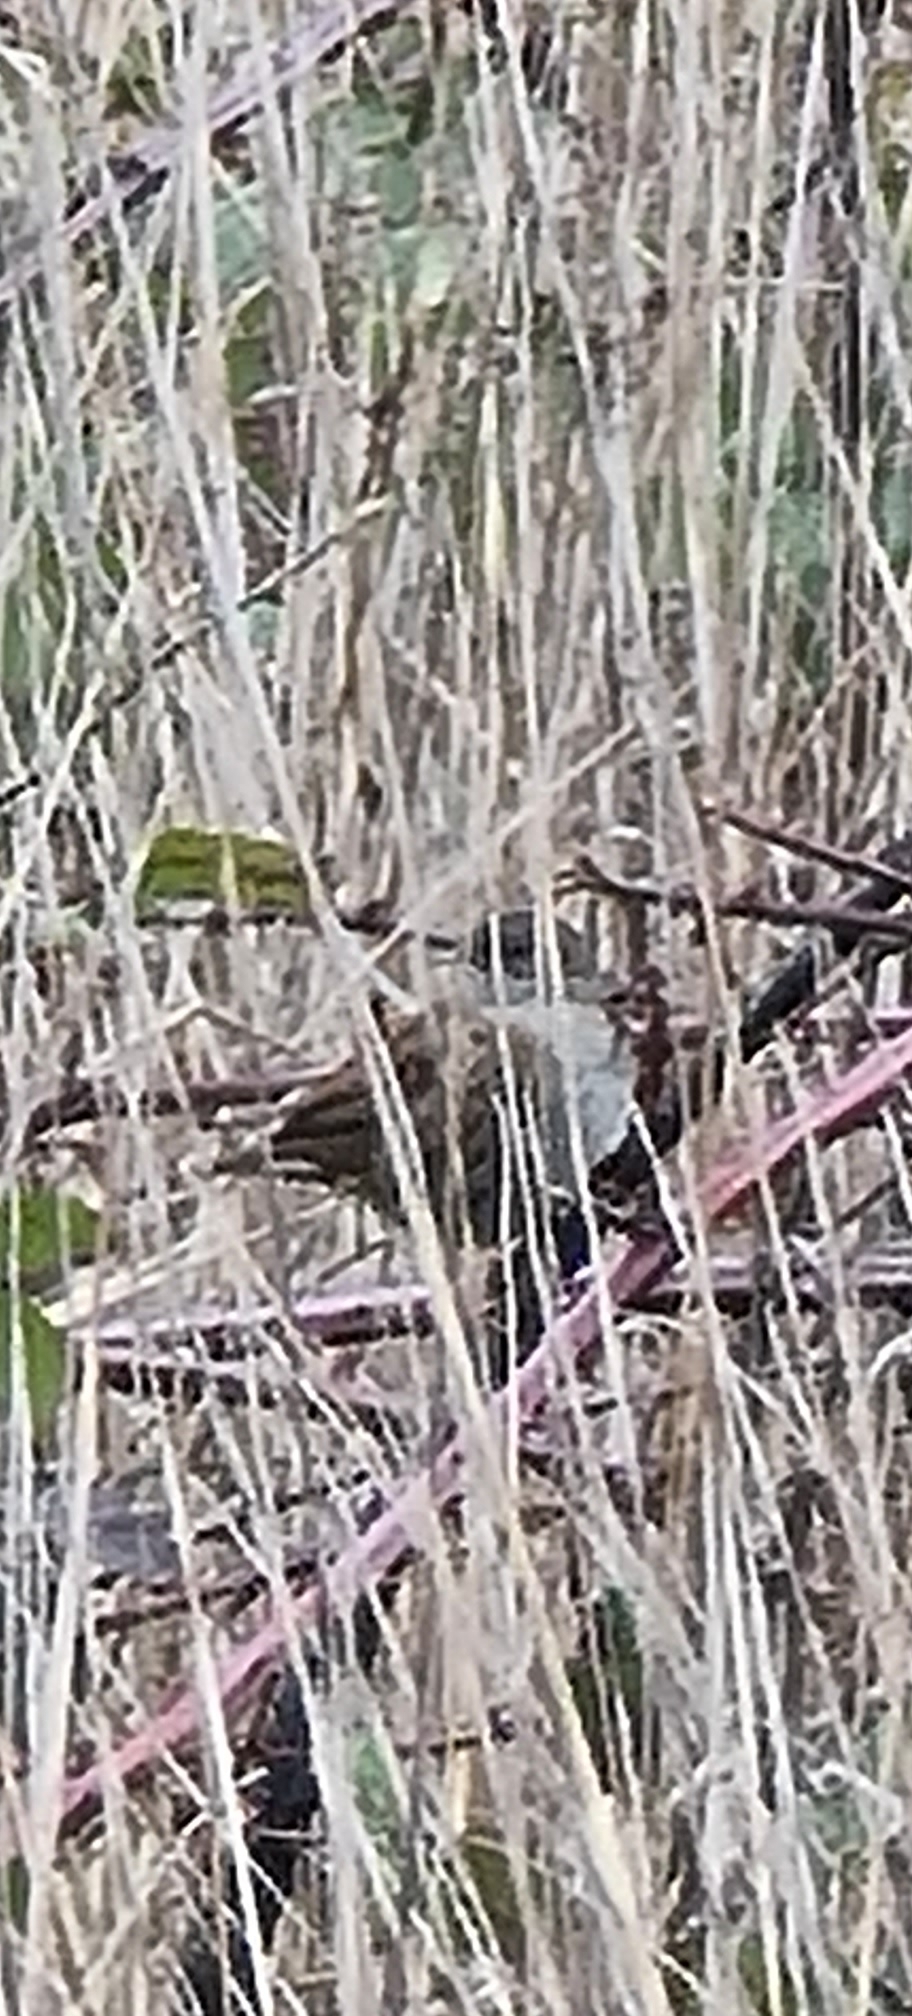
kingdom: Animalia
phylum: Chordata
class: Aves
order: Passeriformes
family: Prunellidae
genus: Prunella
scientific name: Prunella modularis
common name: Dunnock
